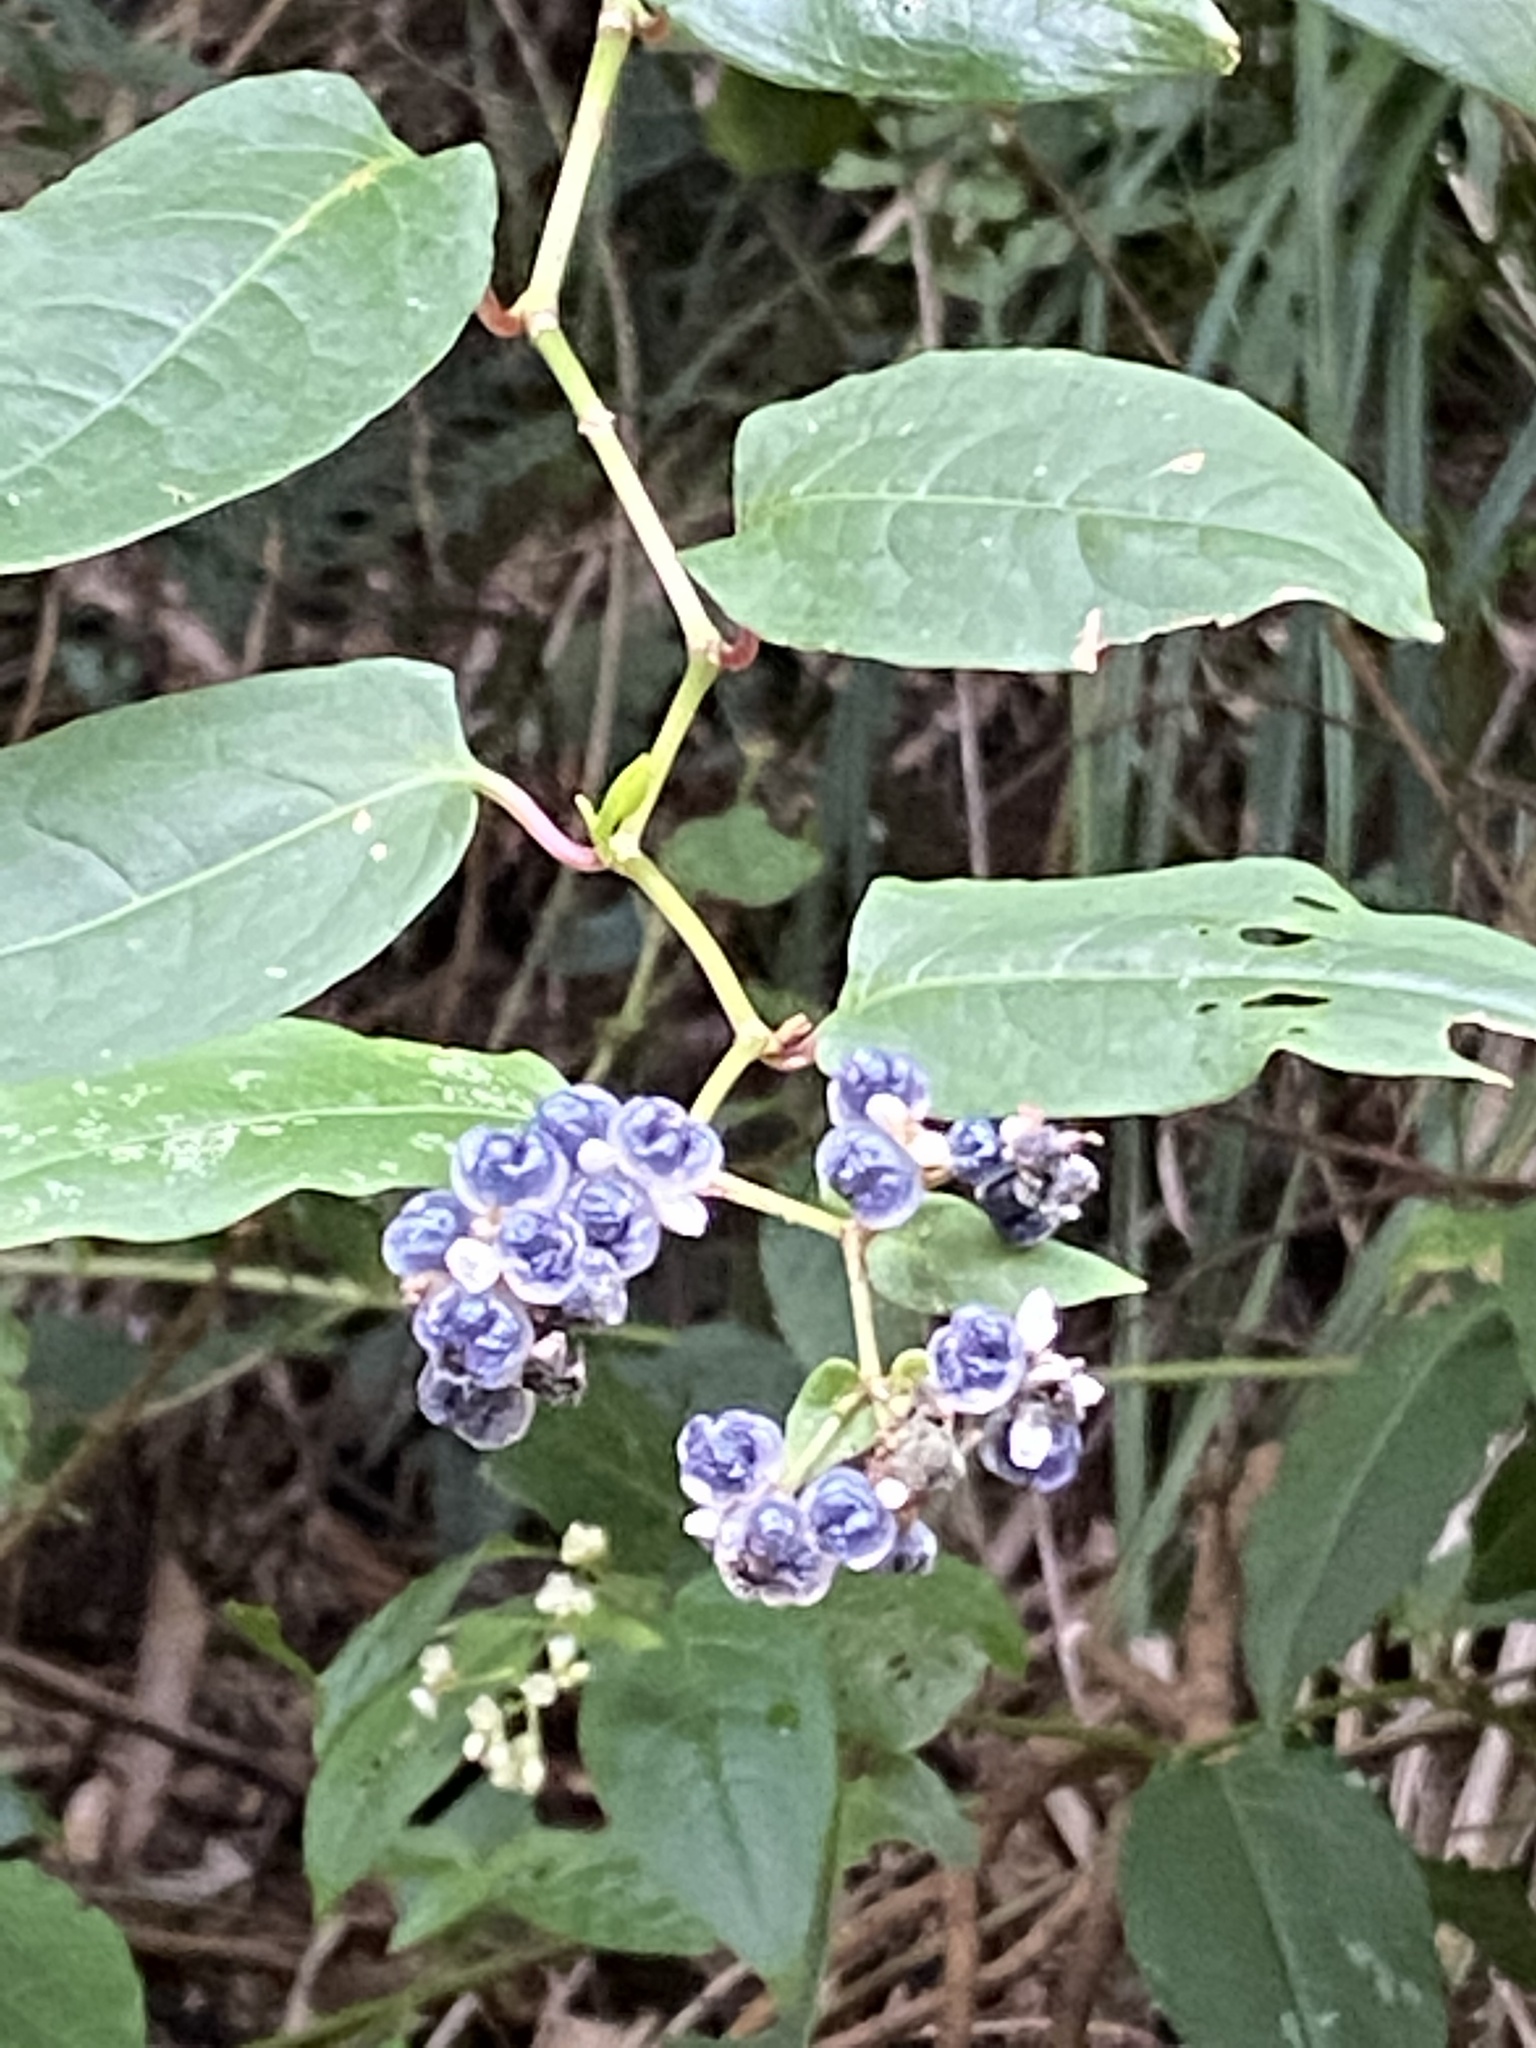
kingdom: Plantae
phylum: Tracheophyta
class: Magnoliopsida
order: Caryophyllales
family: Polygonaceae
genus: Persicaria
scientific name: Persicaria chinensis
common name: Chinese knotweed
